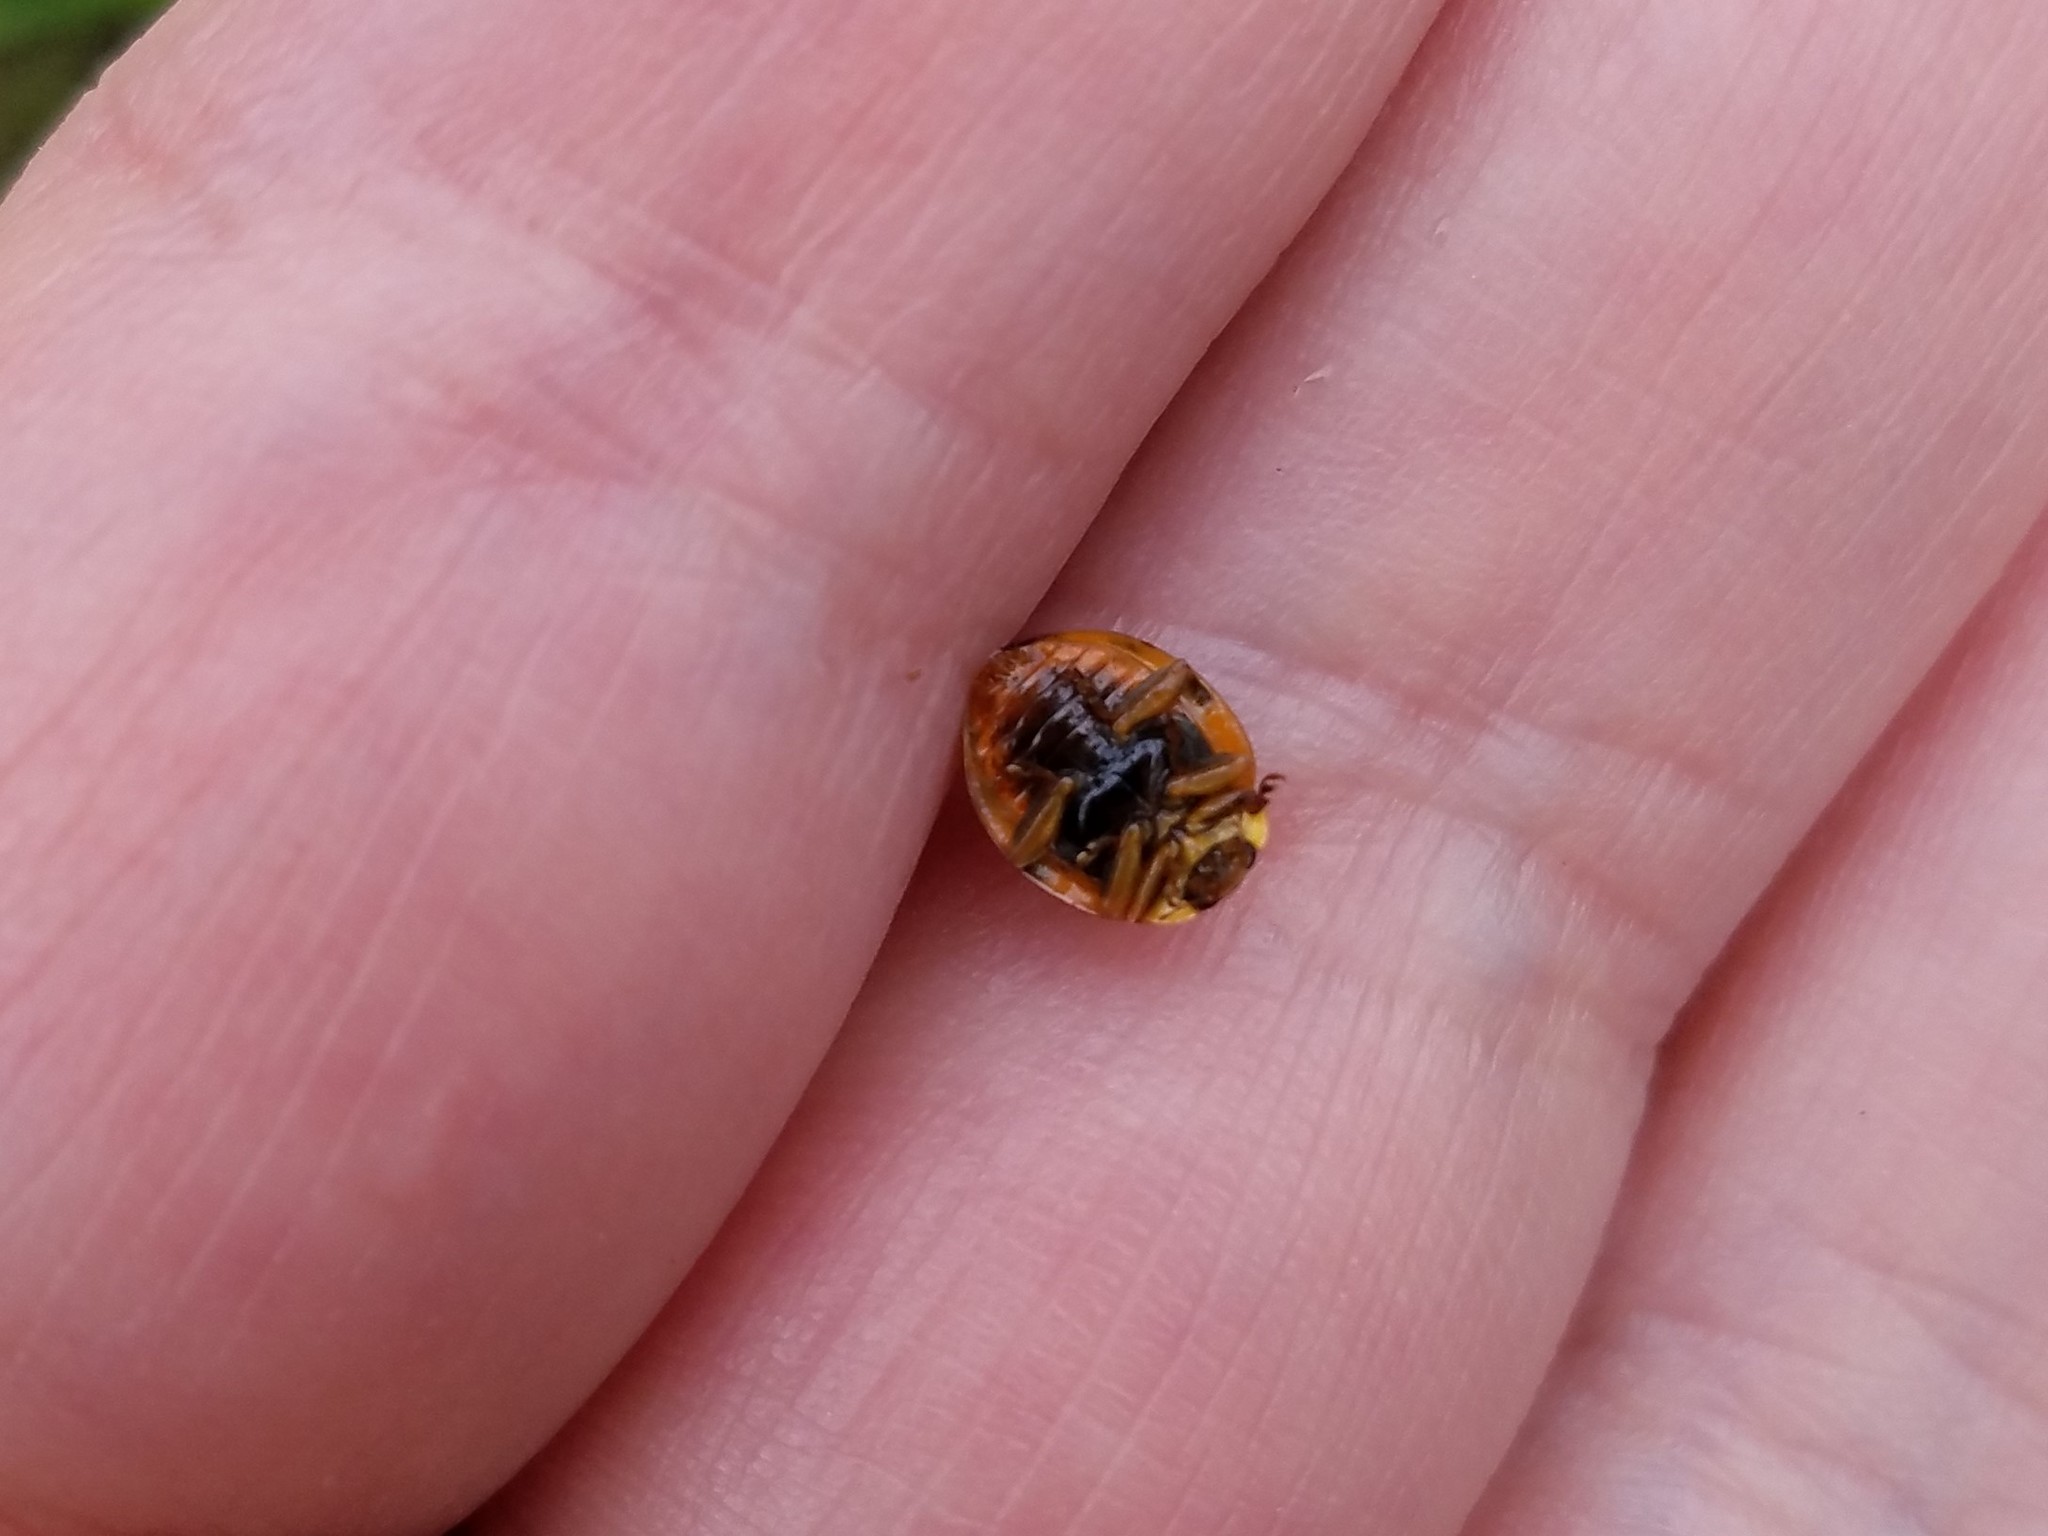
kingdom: Animalia
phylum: Arthropoda
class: Insecta
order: Coleoptera
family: Coccinellidae
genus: Harmonia
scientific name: Harmonia axyridis
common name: Harlequin ladybird
